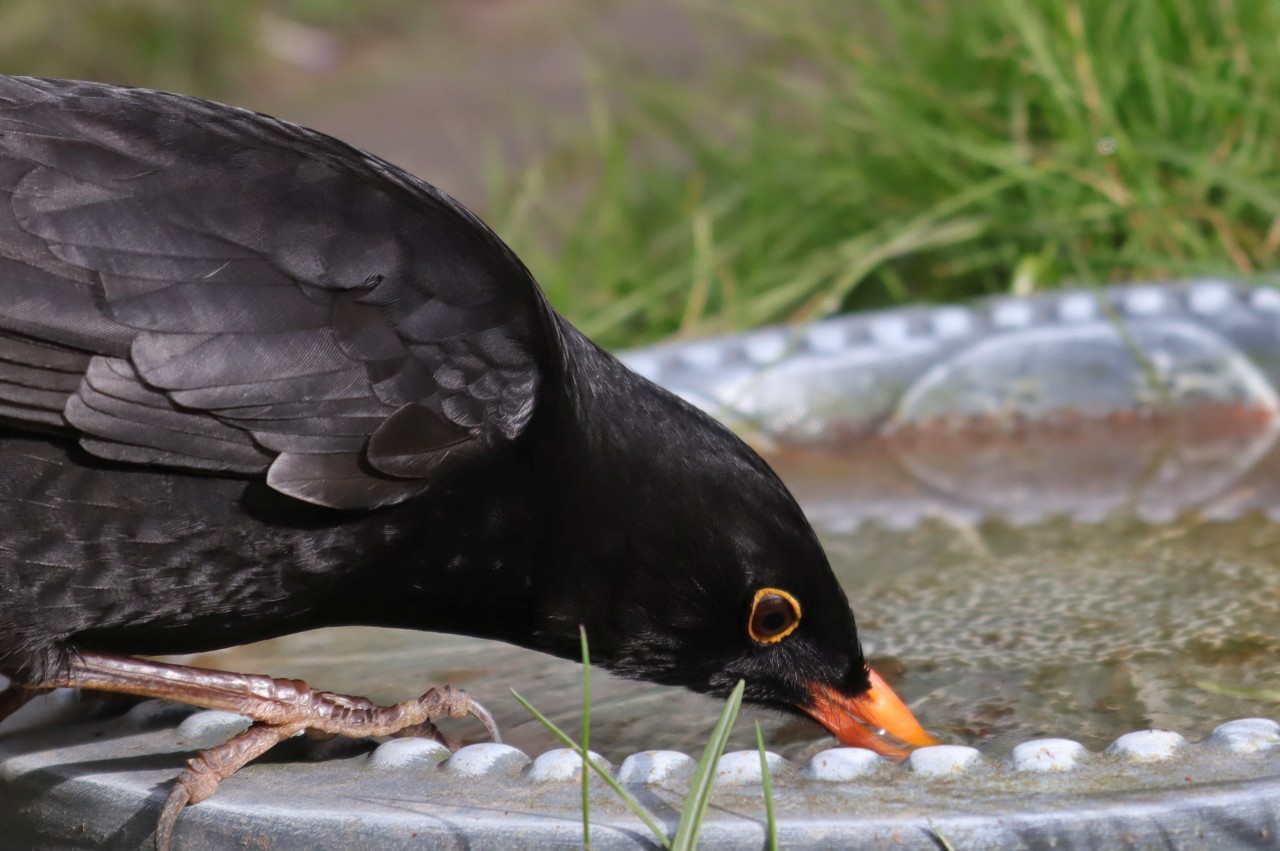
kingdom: Animalia
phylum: Chordata
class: Aves
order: Passeriformes
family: Turdidae
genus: Turdus
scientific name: Turdus merula
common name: Common blackbird
